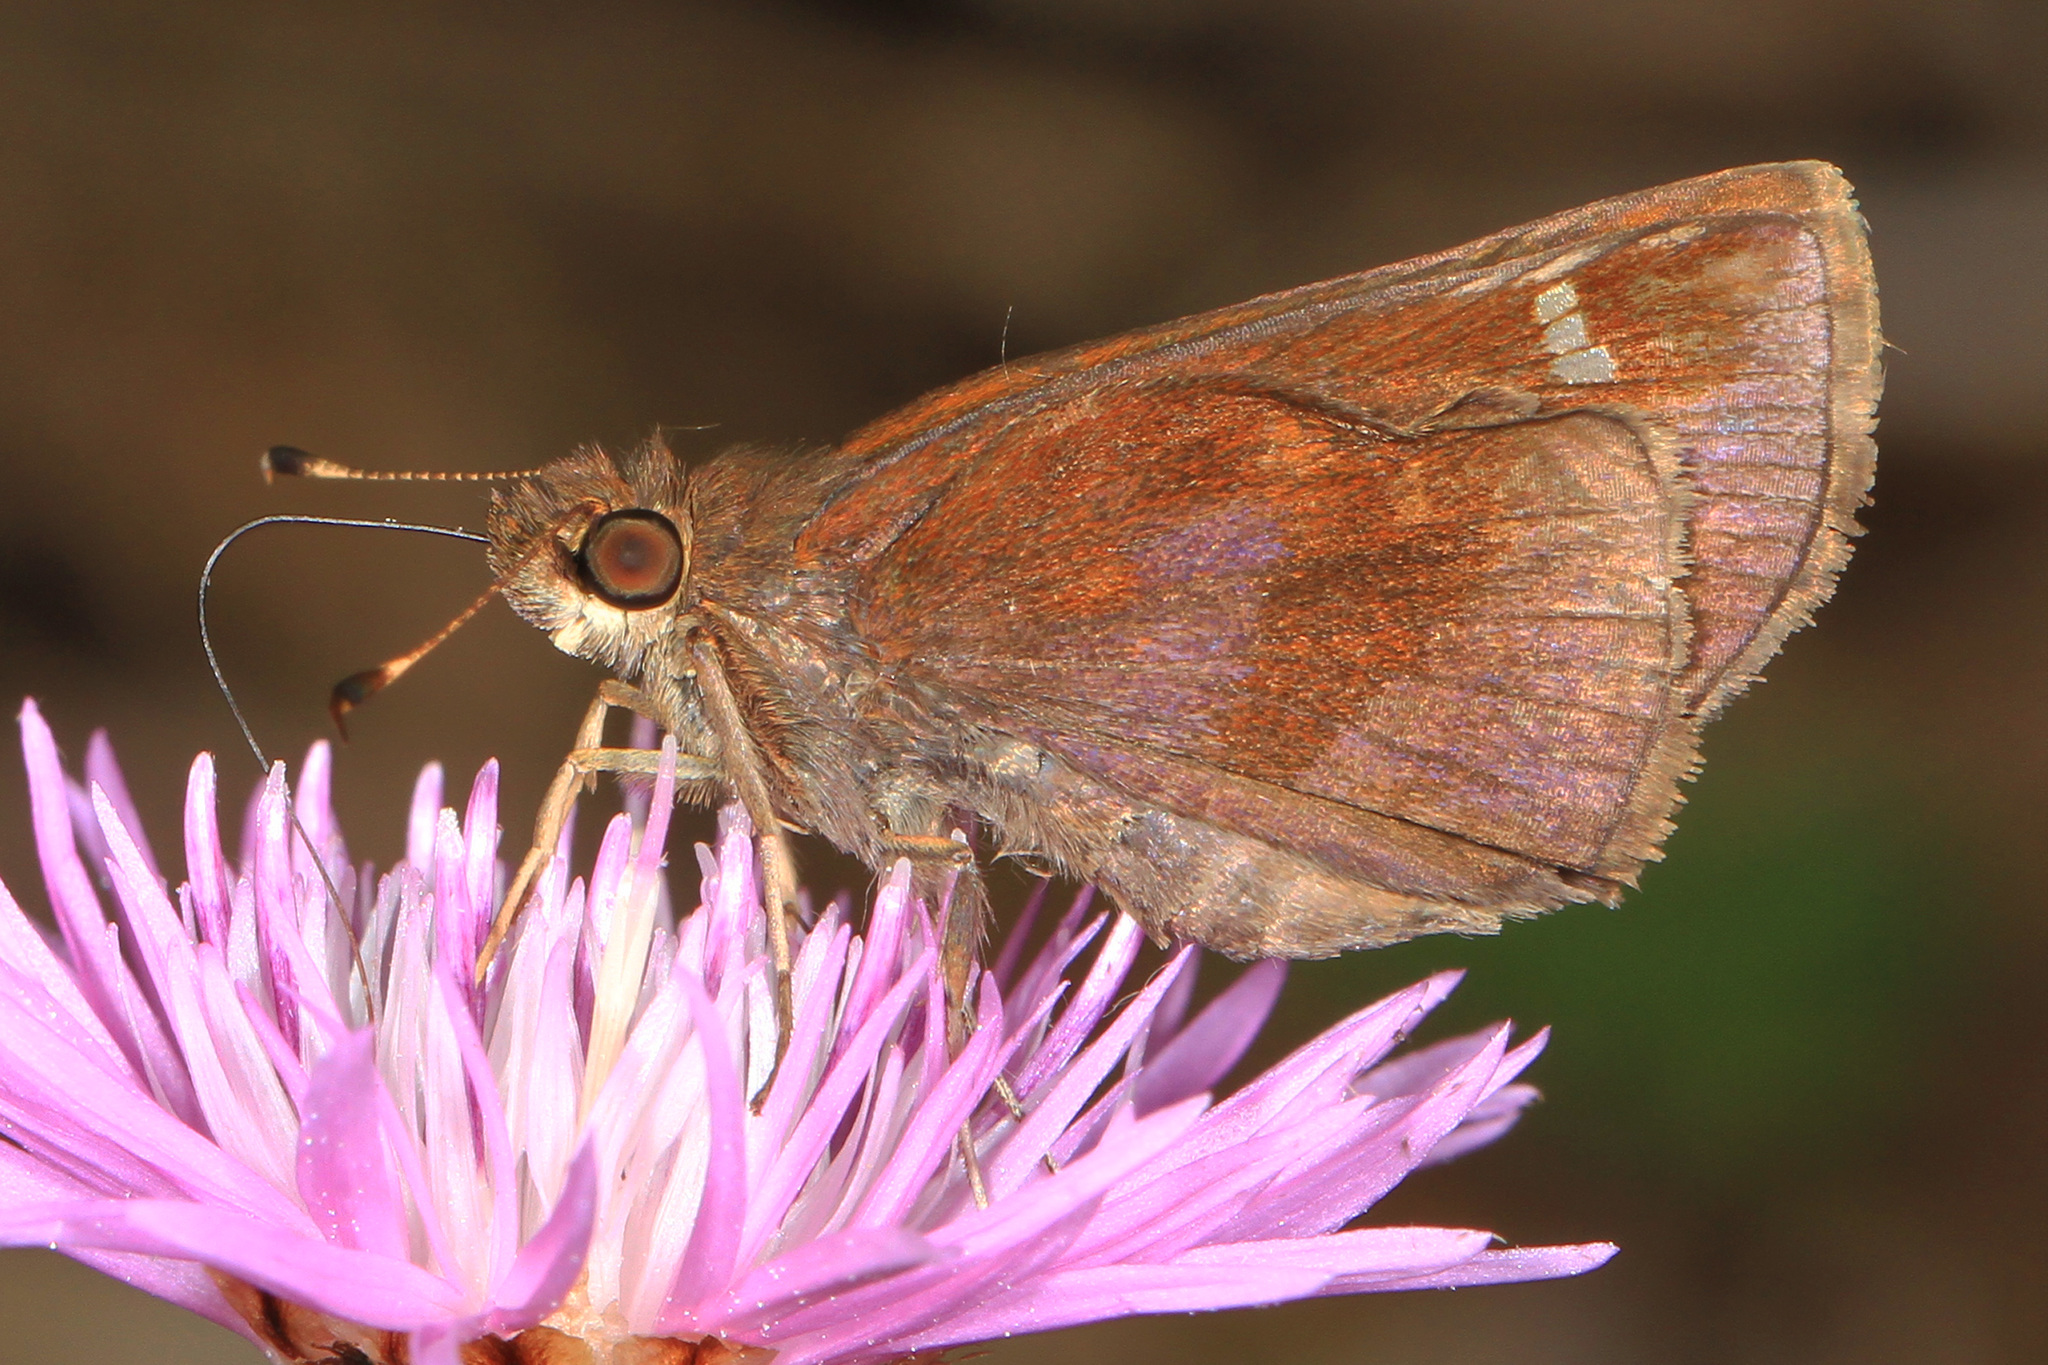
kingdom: Animalia
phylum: Arthropoda
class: Insecta
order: Lepidoptera
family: Hesperiidae
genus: Lerema
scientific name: Lerema accius
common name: Clouded skipper
